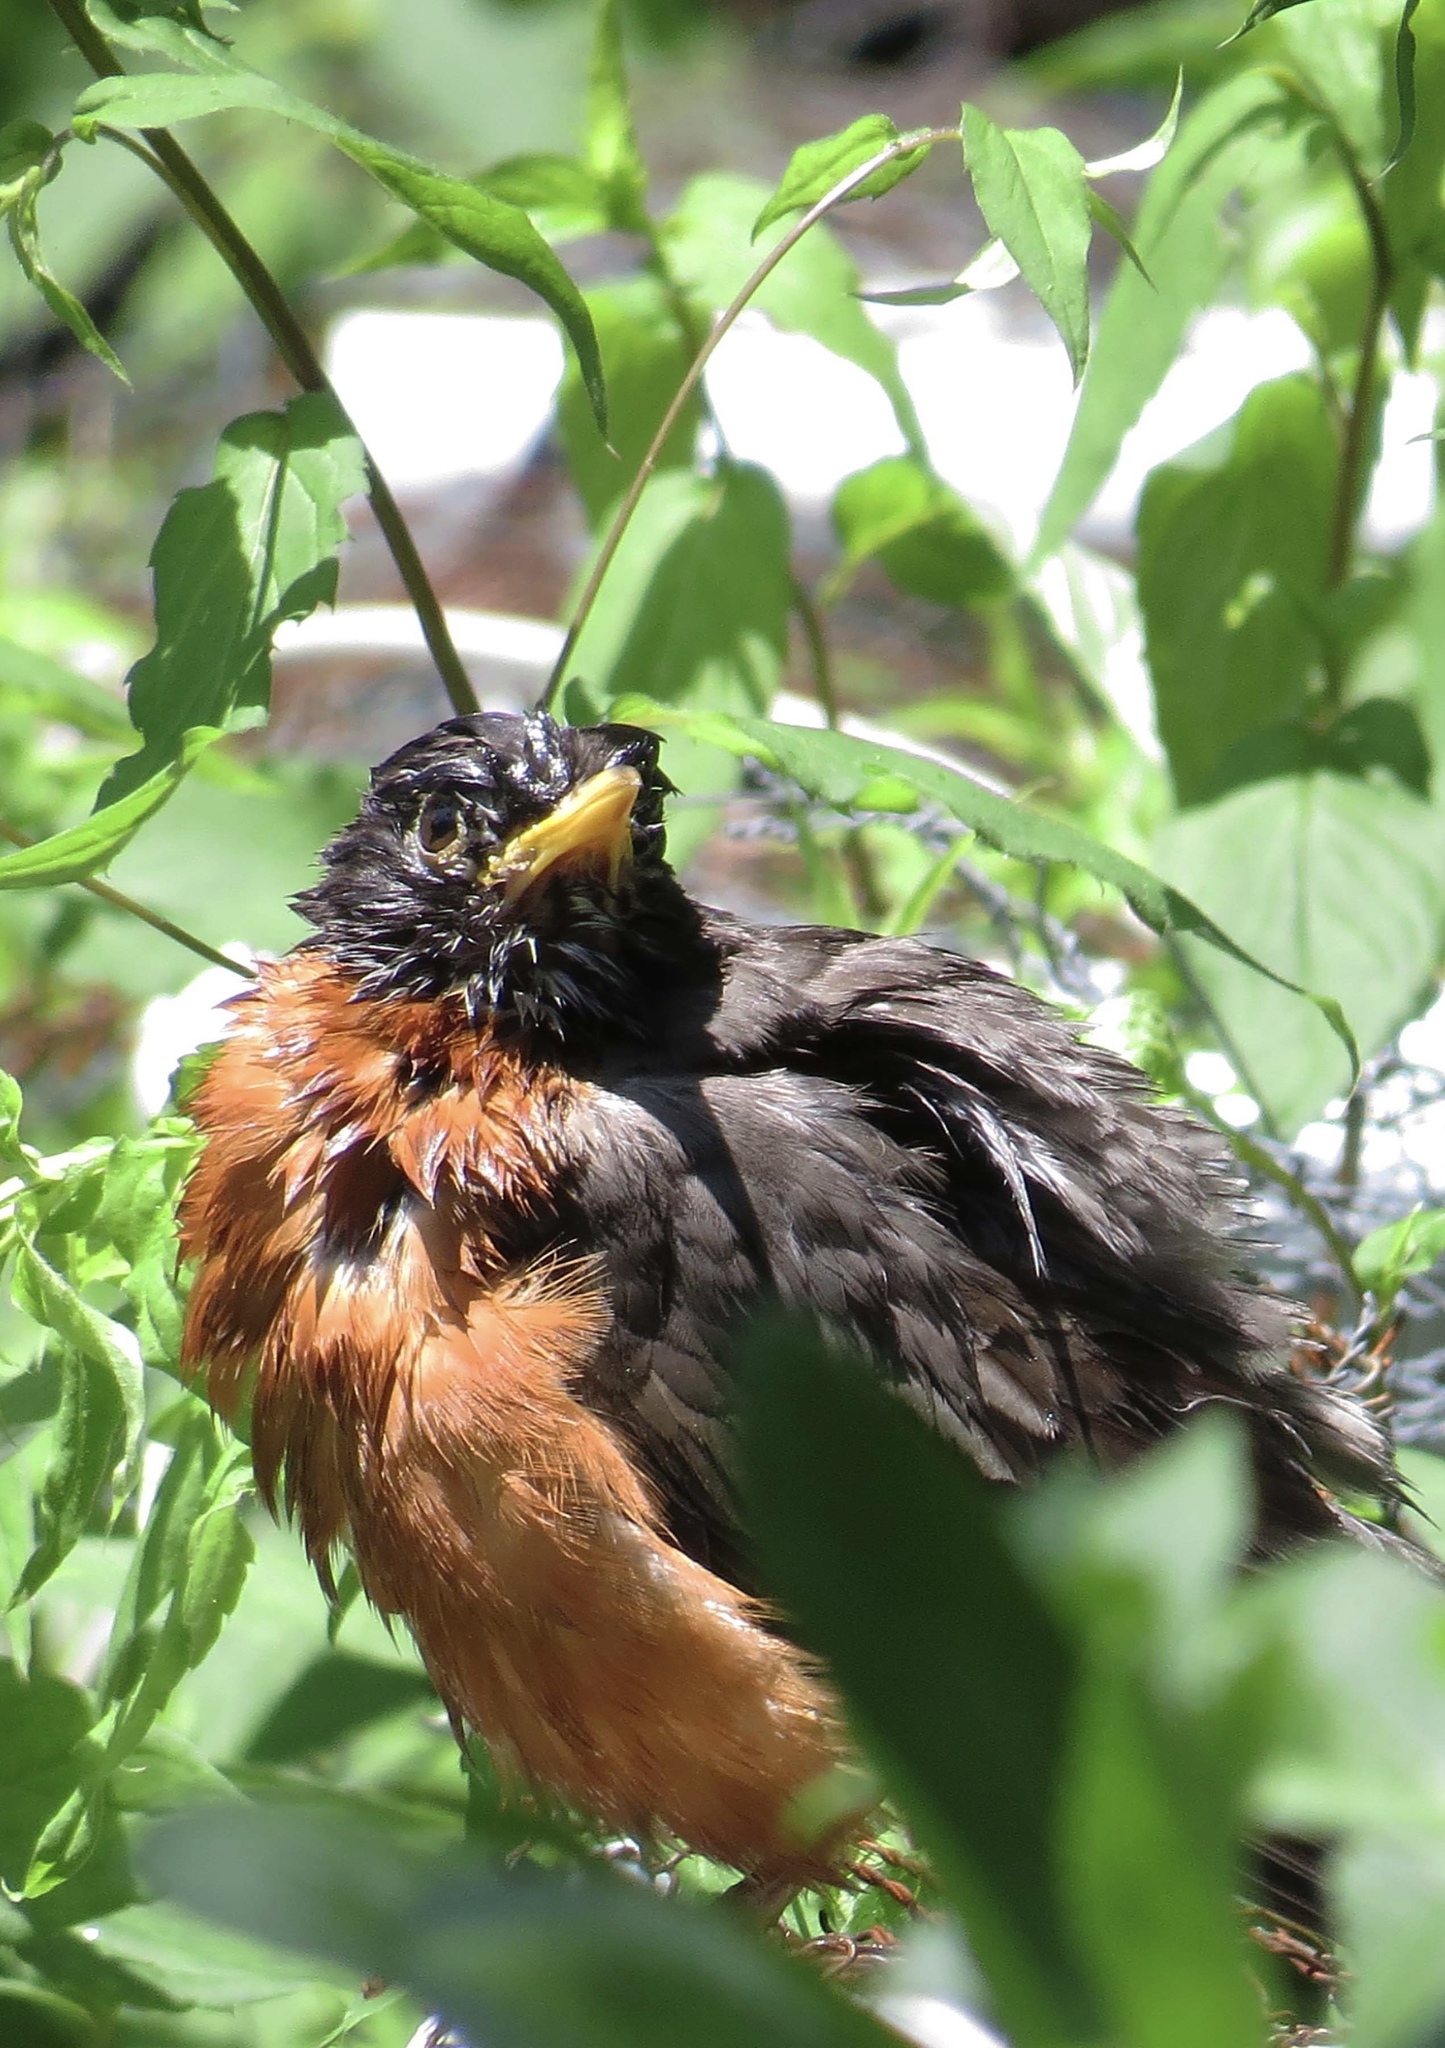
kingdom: Animalia
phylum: Chordata
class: Aves
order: Passeriformes
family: Turdidae
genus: Turdus
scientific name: Turdus migratorius
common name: American robin
